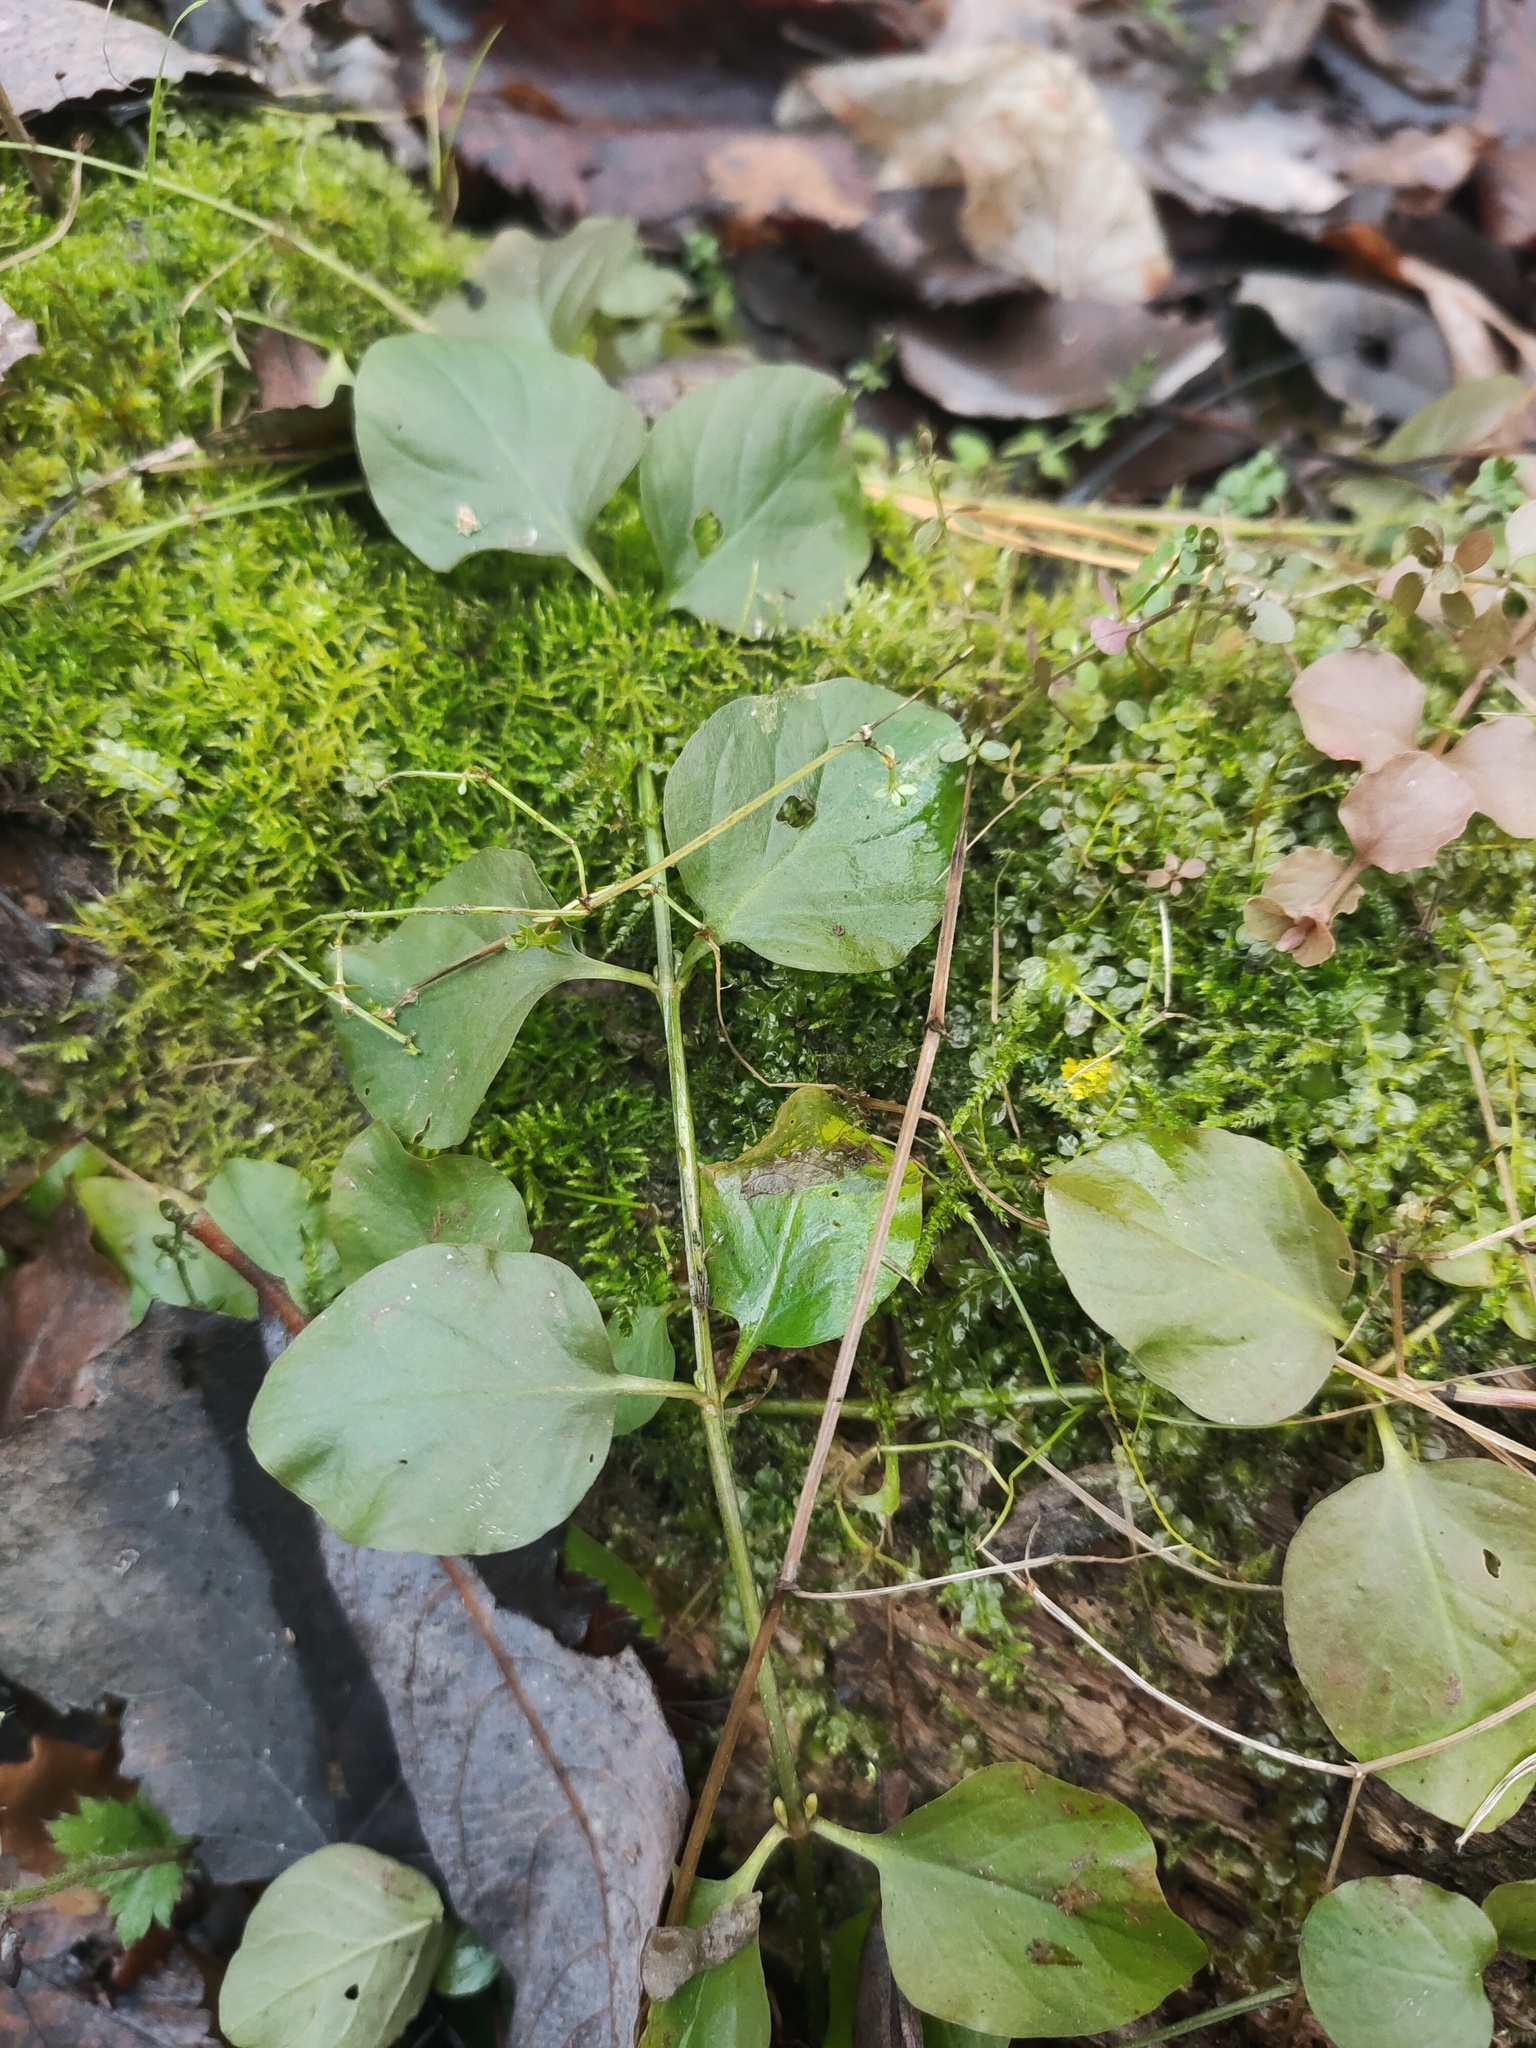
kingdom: Plantae
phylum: Tracheophyta
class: Magnoliopsida
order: Ericales
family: Primulaceae
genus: Lysimachia
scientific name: Lysimachia nummularia
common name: Moneywort
